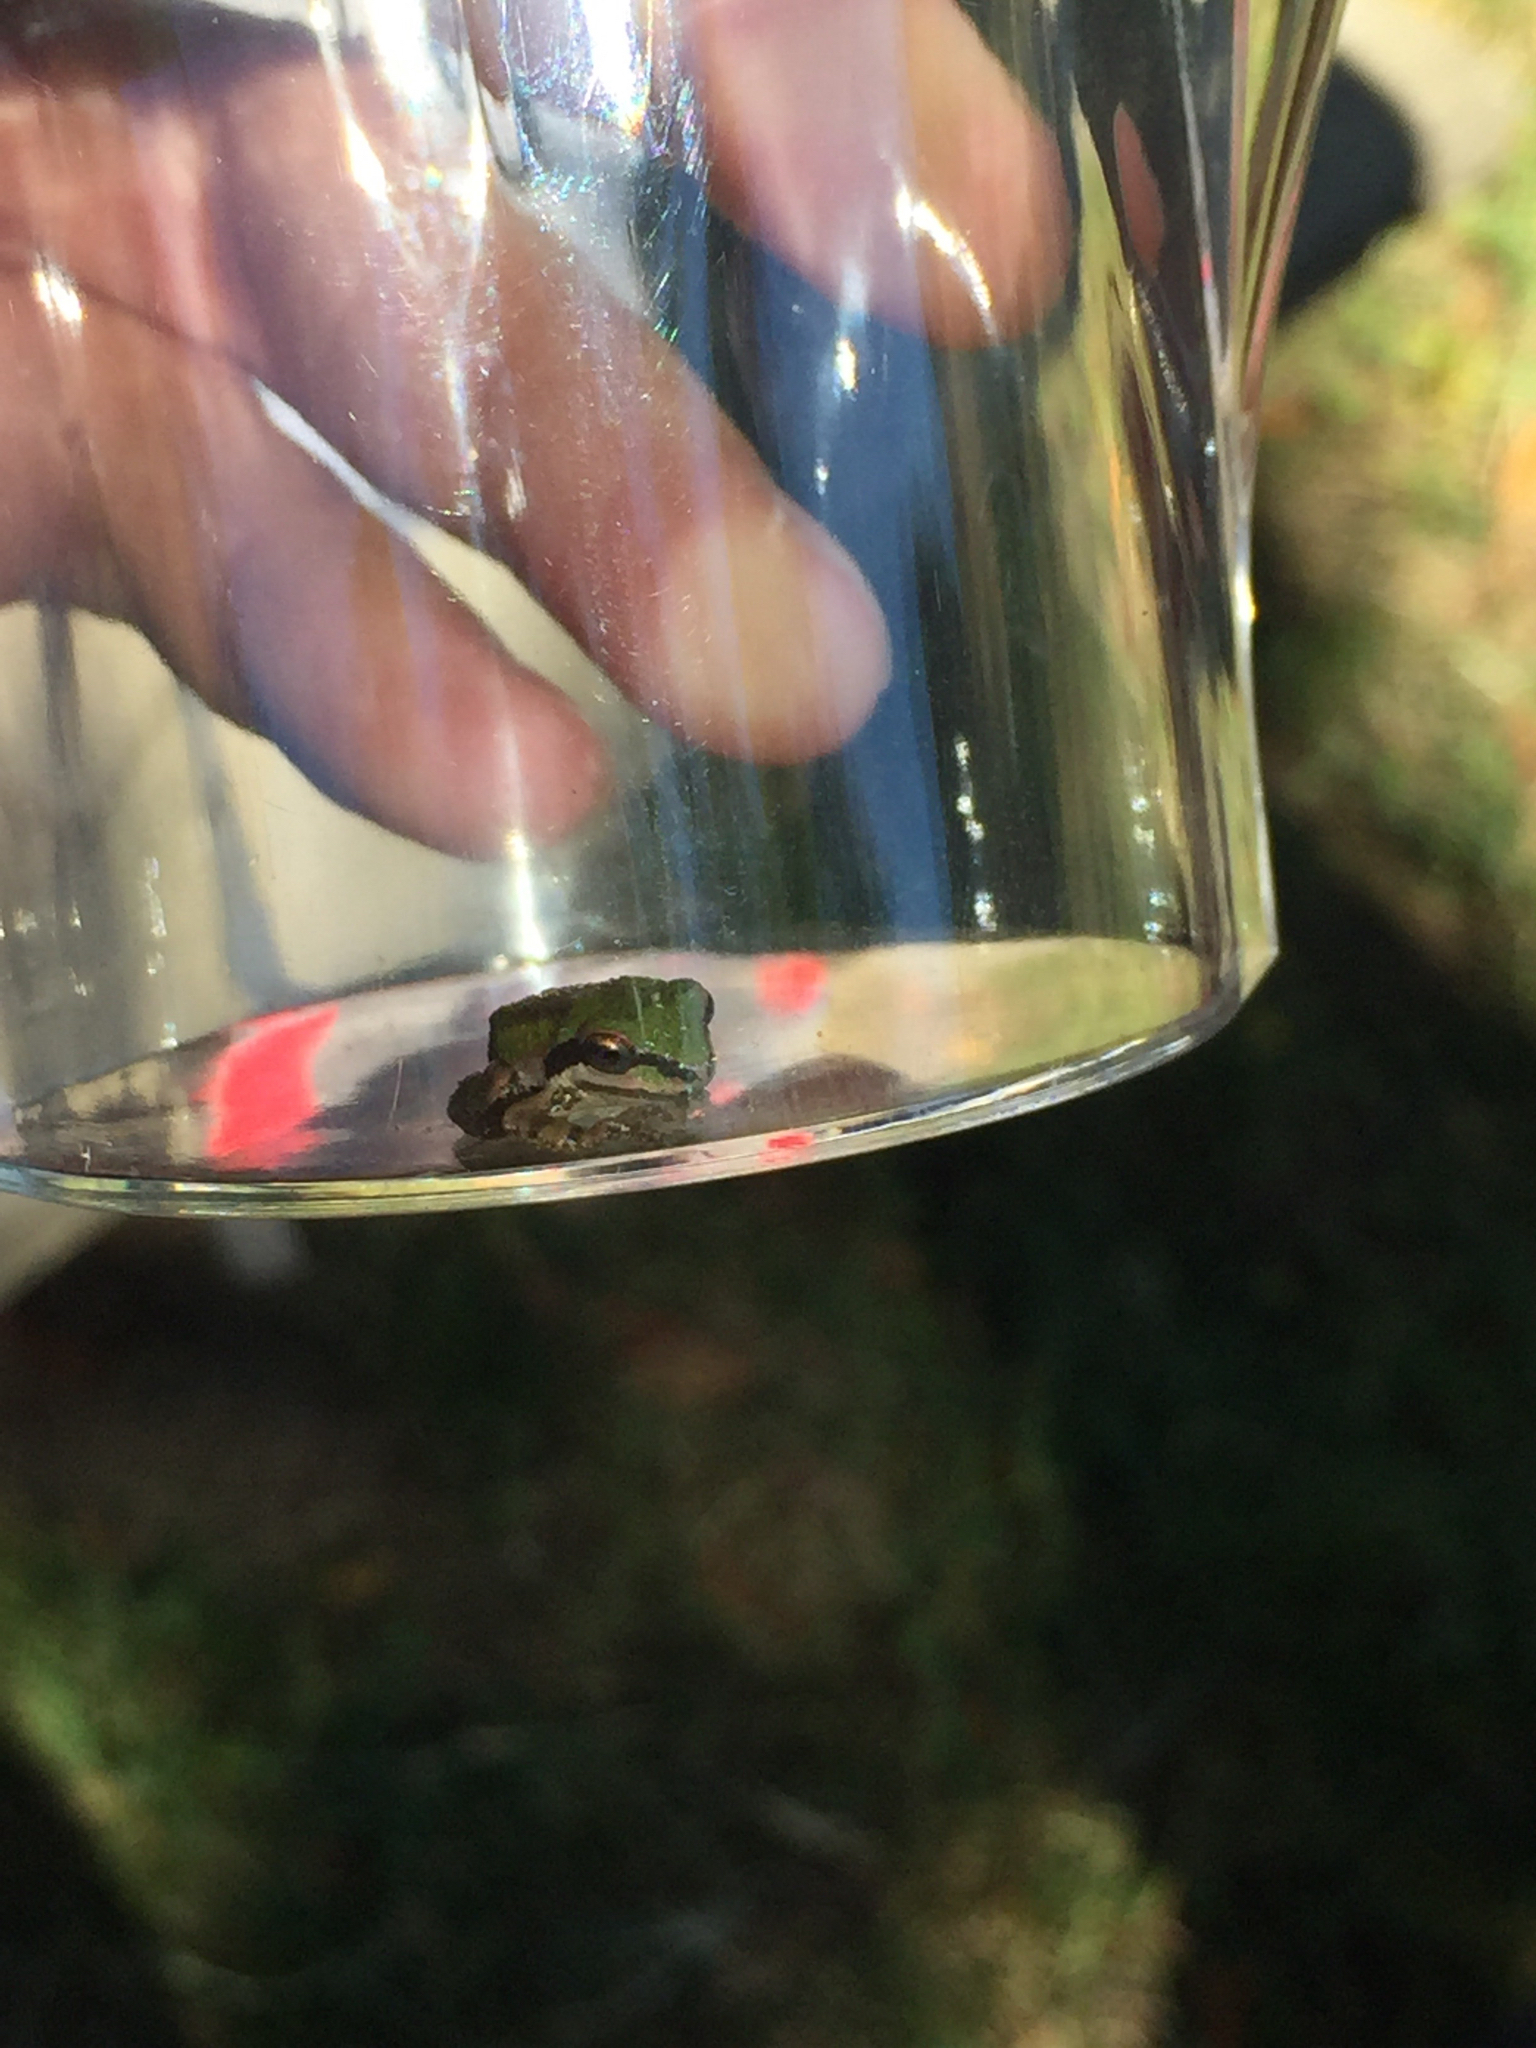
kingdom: Animalia
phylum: Chordata
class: Amphibia
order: Anura
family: Hylidae
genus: Pseudacris
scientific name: Pseudacris regilla
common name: Pacific chorus frog
